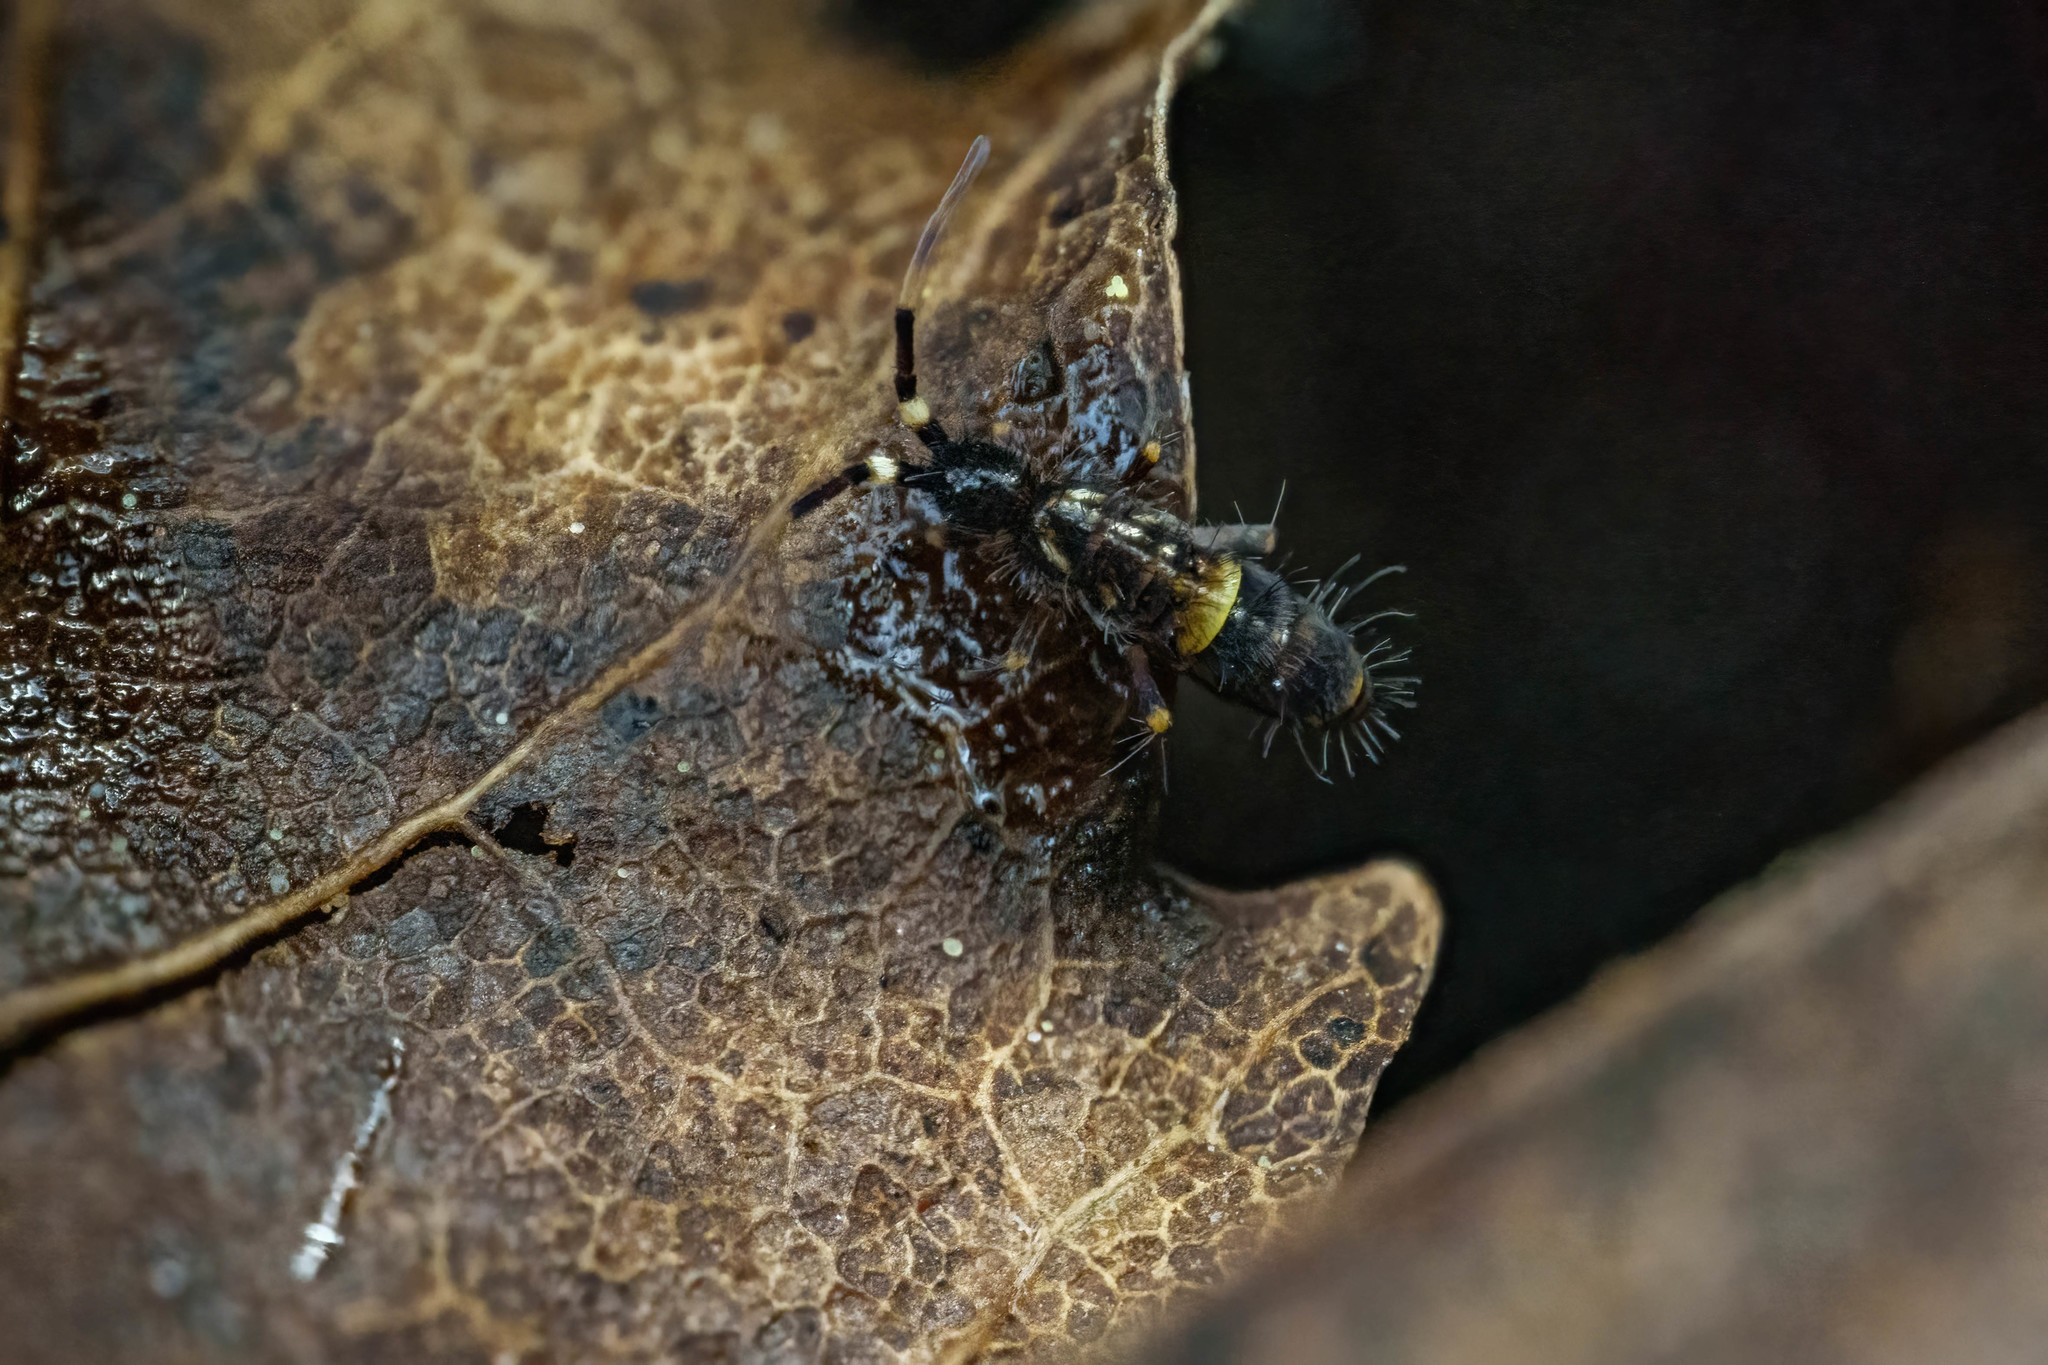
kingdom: Animalia
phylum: Arthropoda
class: Collembola
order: Entomobryomorpha
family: Orchesellidae
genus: Orchesella
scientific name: Orchesella cincta
